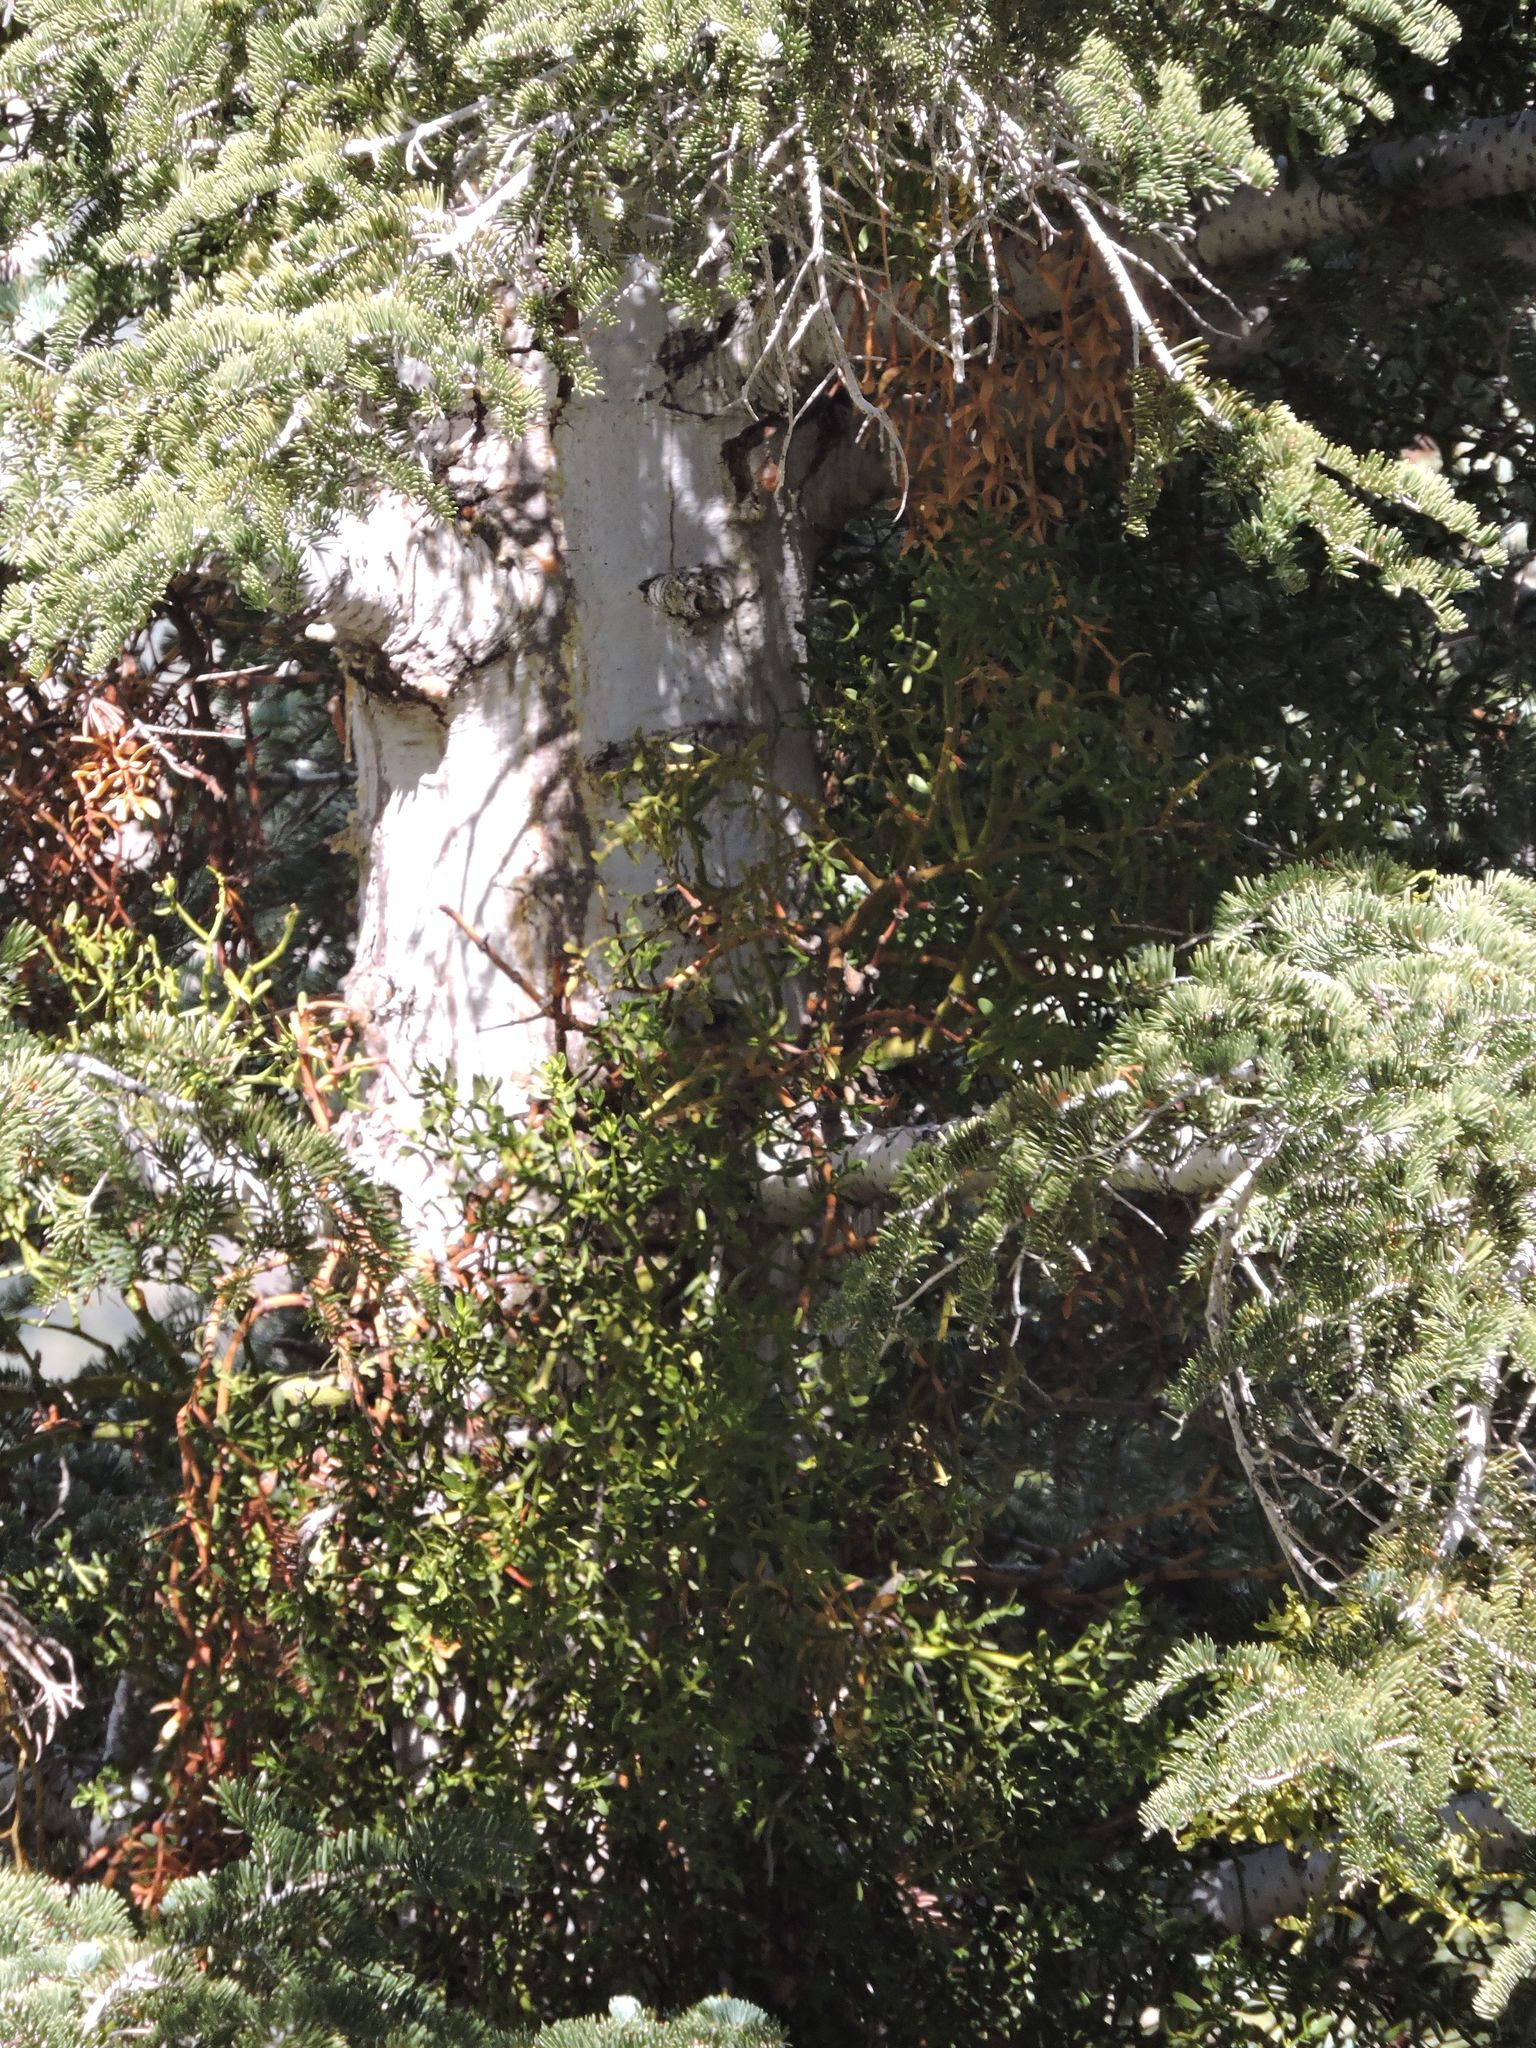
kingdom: Plantae
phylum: Tracheophyta
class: Pinopsida
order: Pinales
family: Pinaceae
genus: Abies
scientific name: Abies concolor
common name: Colorado fir
